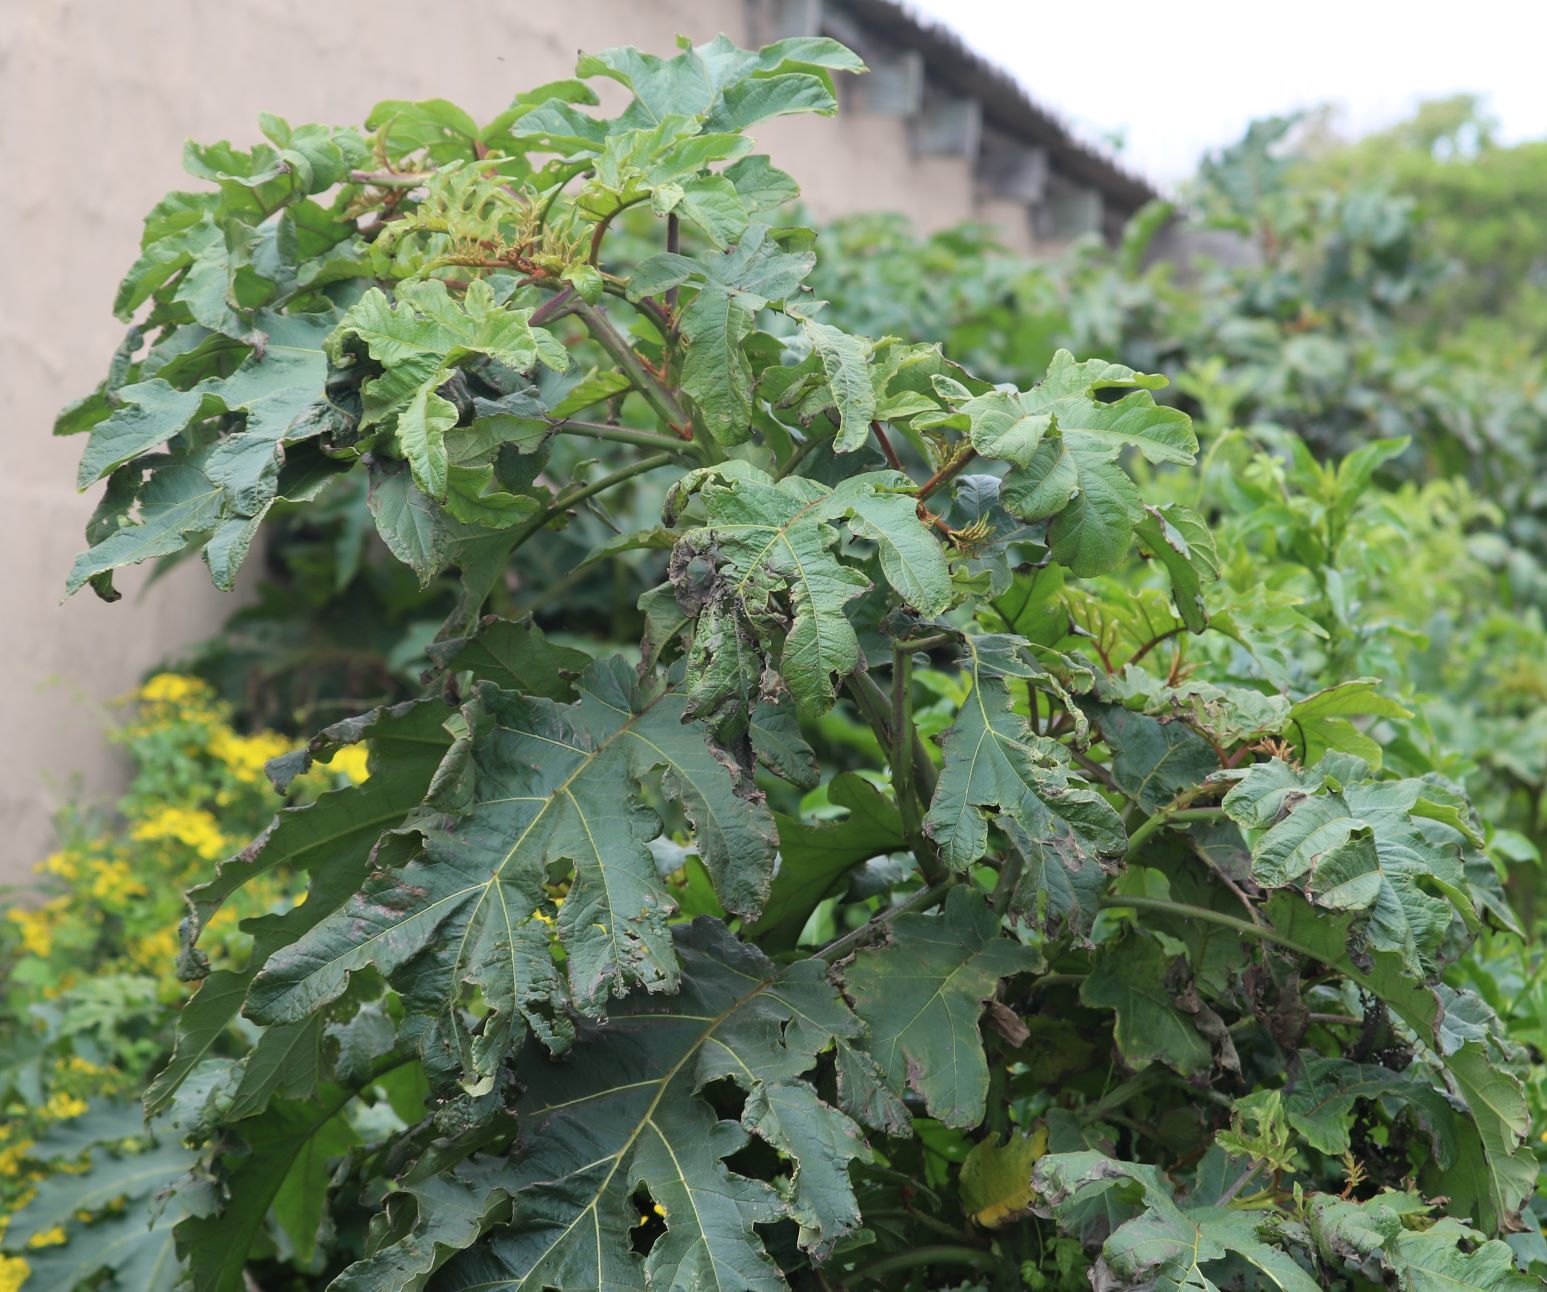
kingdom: Plantae
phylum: Tracheophyta
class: Magnoliopsida
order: Solanales
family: Solanaceae
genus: Solanum
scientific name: Solanum chrysotrichum
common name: Nightshade
